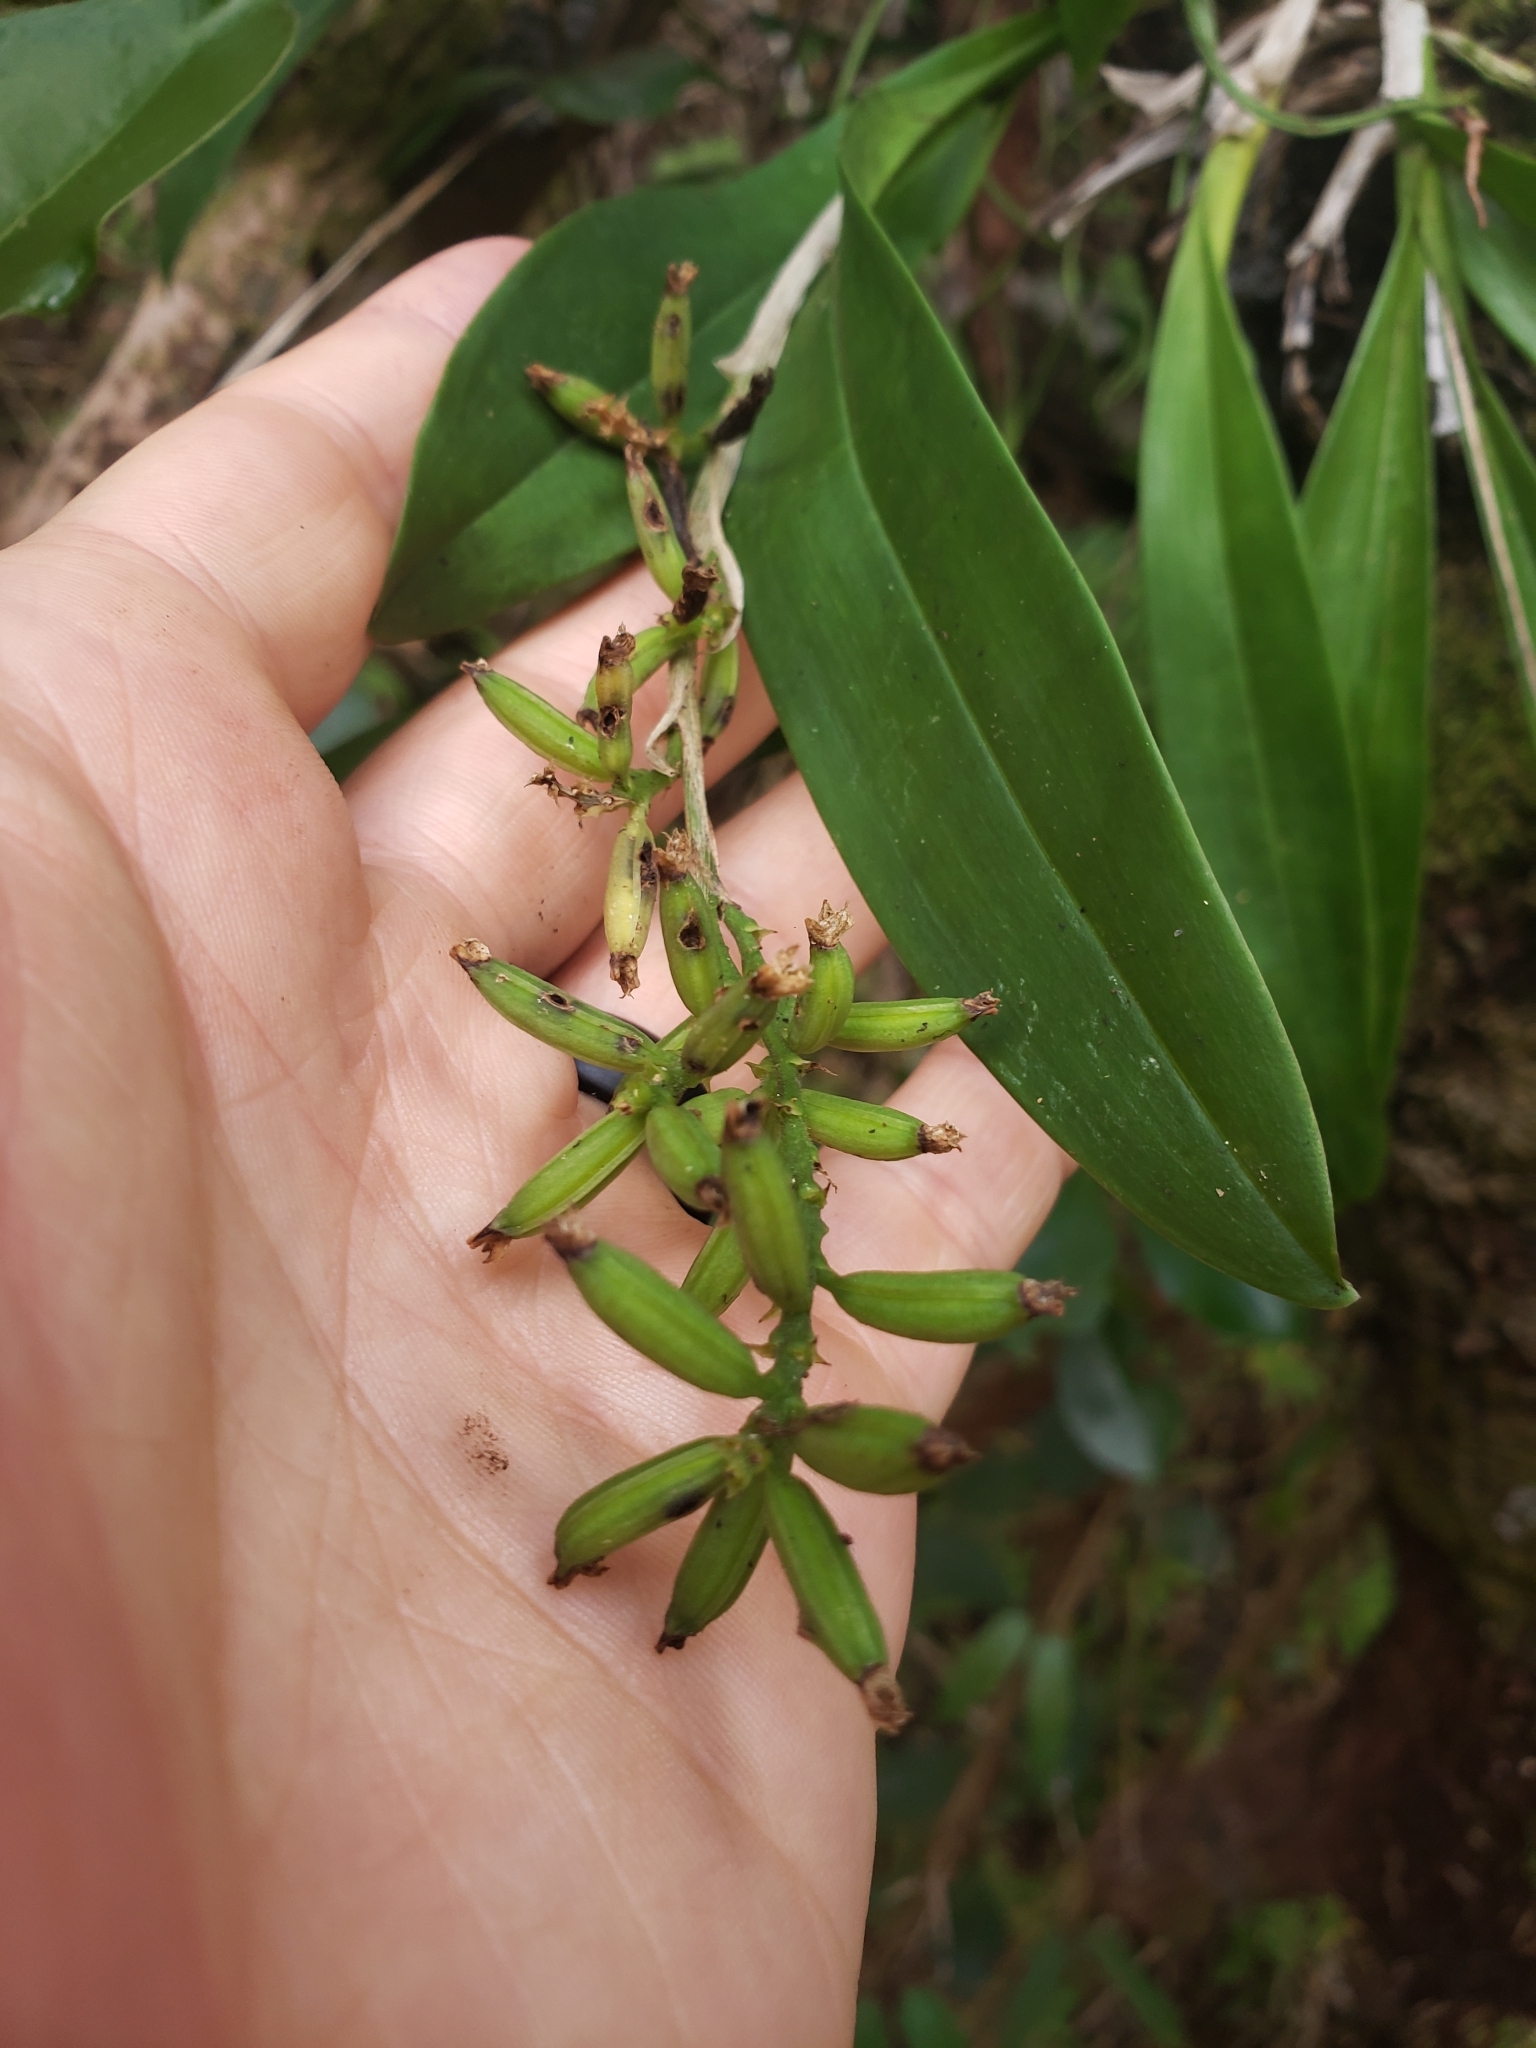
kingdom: Plantae
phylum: Tracheophyta
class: Liliopsida
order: Asparagales
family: Orchidaceae
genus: Polystachya
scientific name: Polystachya concreta
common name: Greater yellowspike orchid
